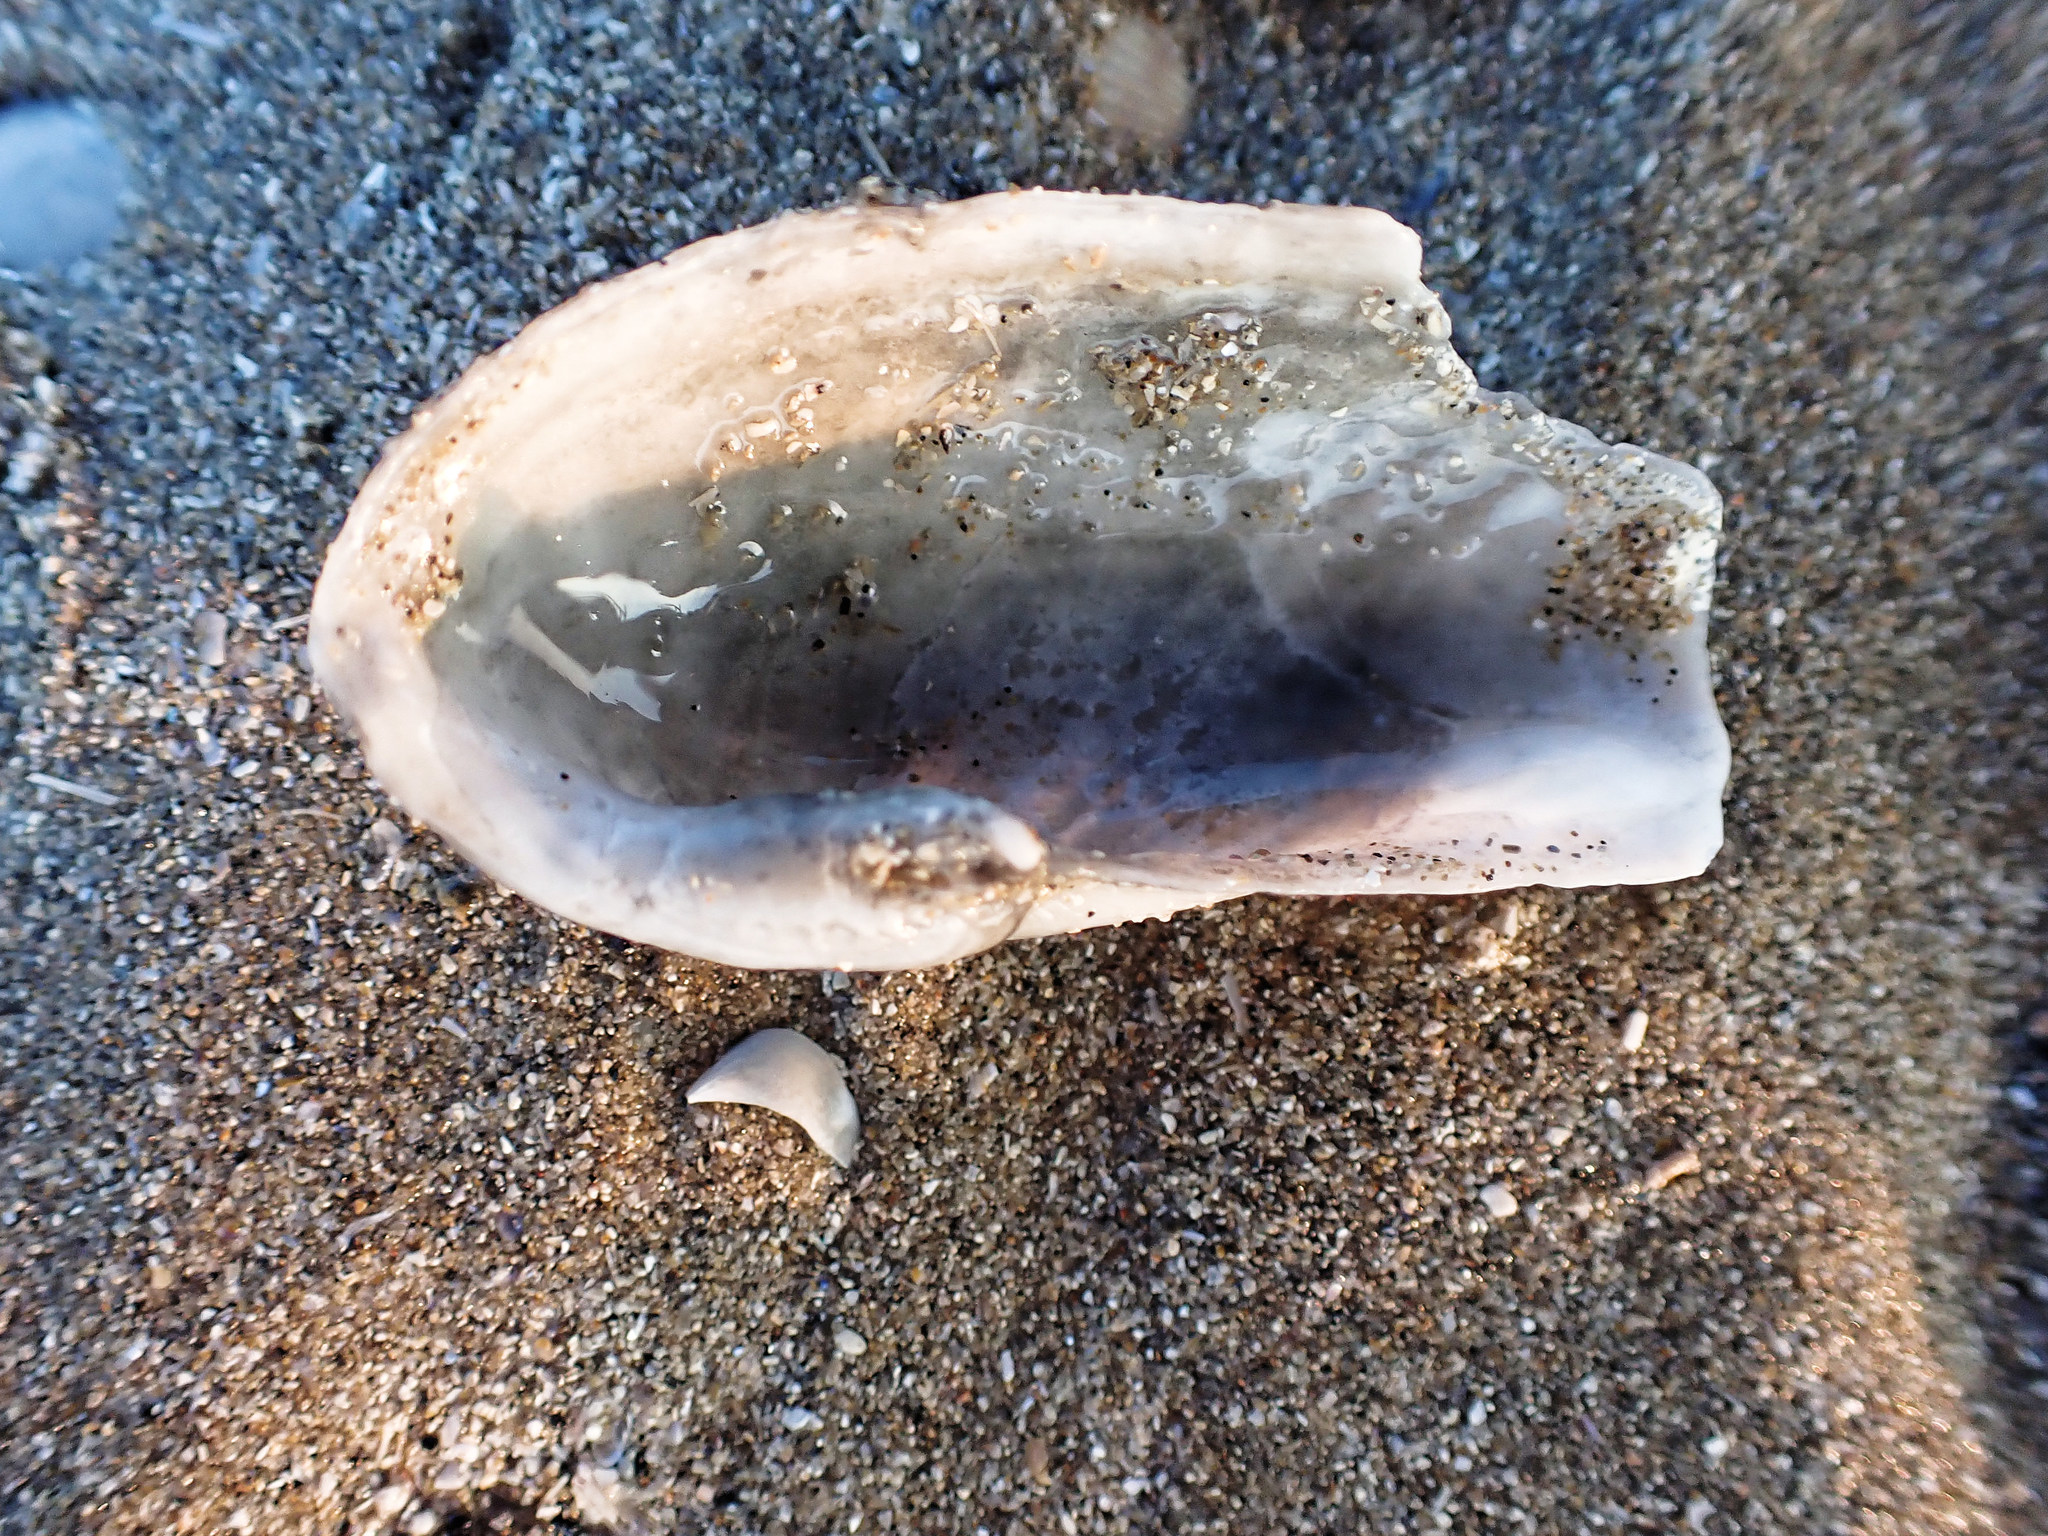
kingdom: Animalia
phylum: Mollusca
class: Bivalvia
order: Myida
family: Pholadidae
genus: Barnea
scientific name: Barnea candida
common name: White piddock
